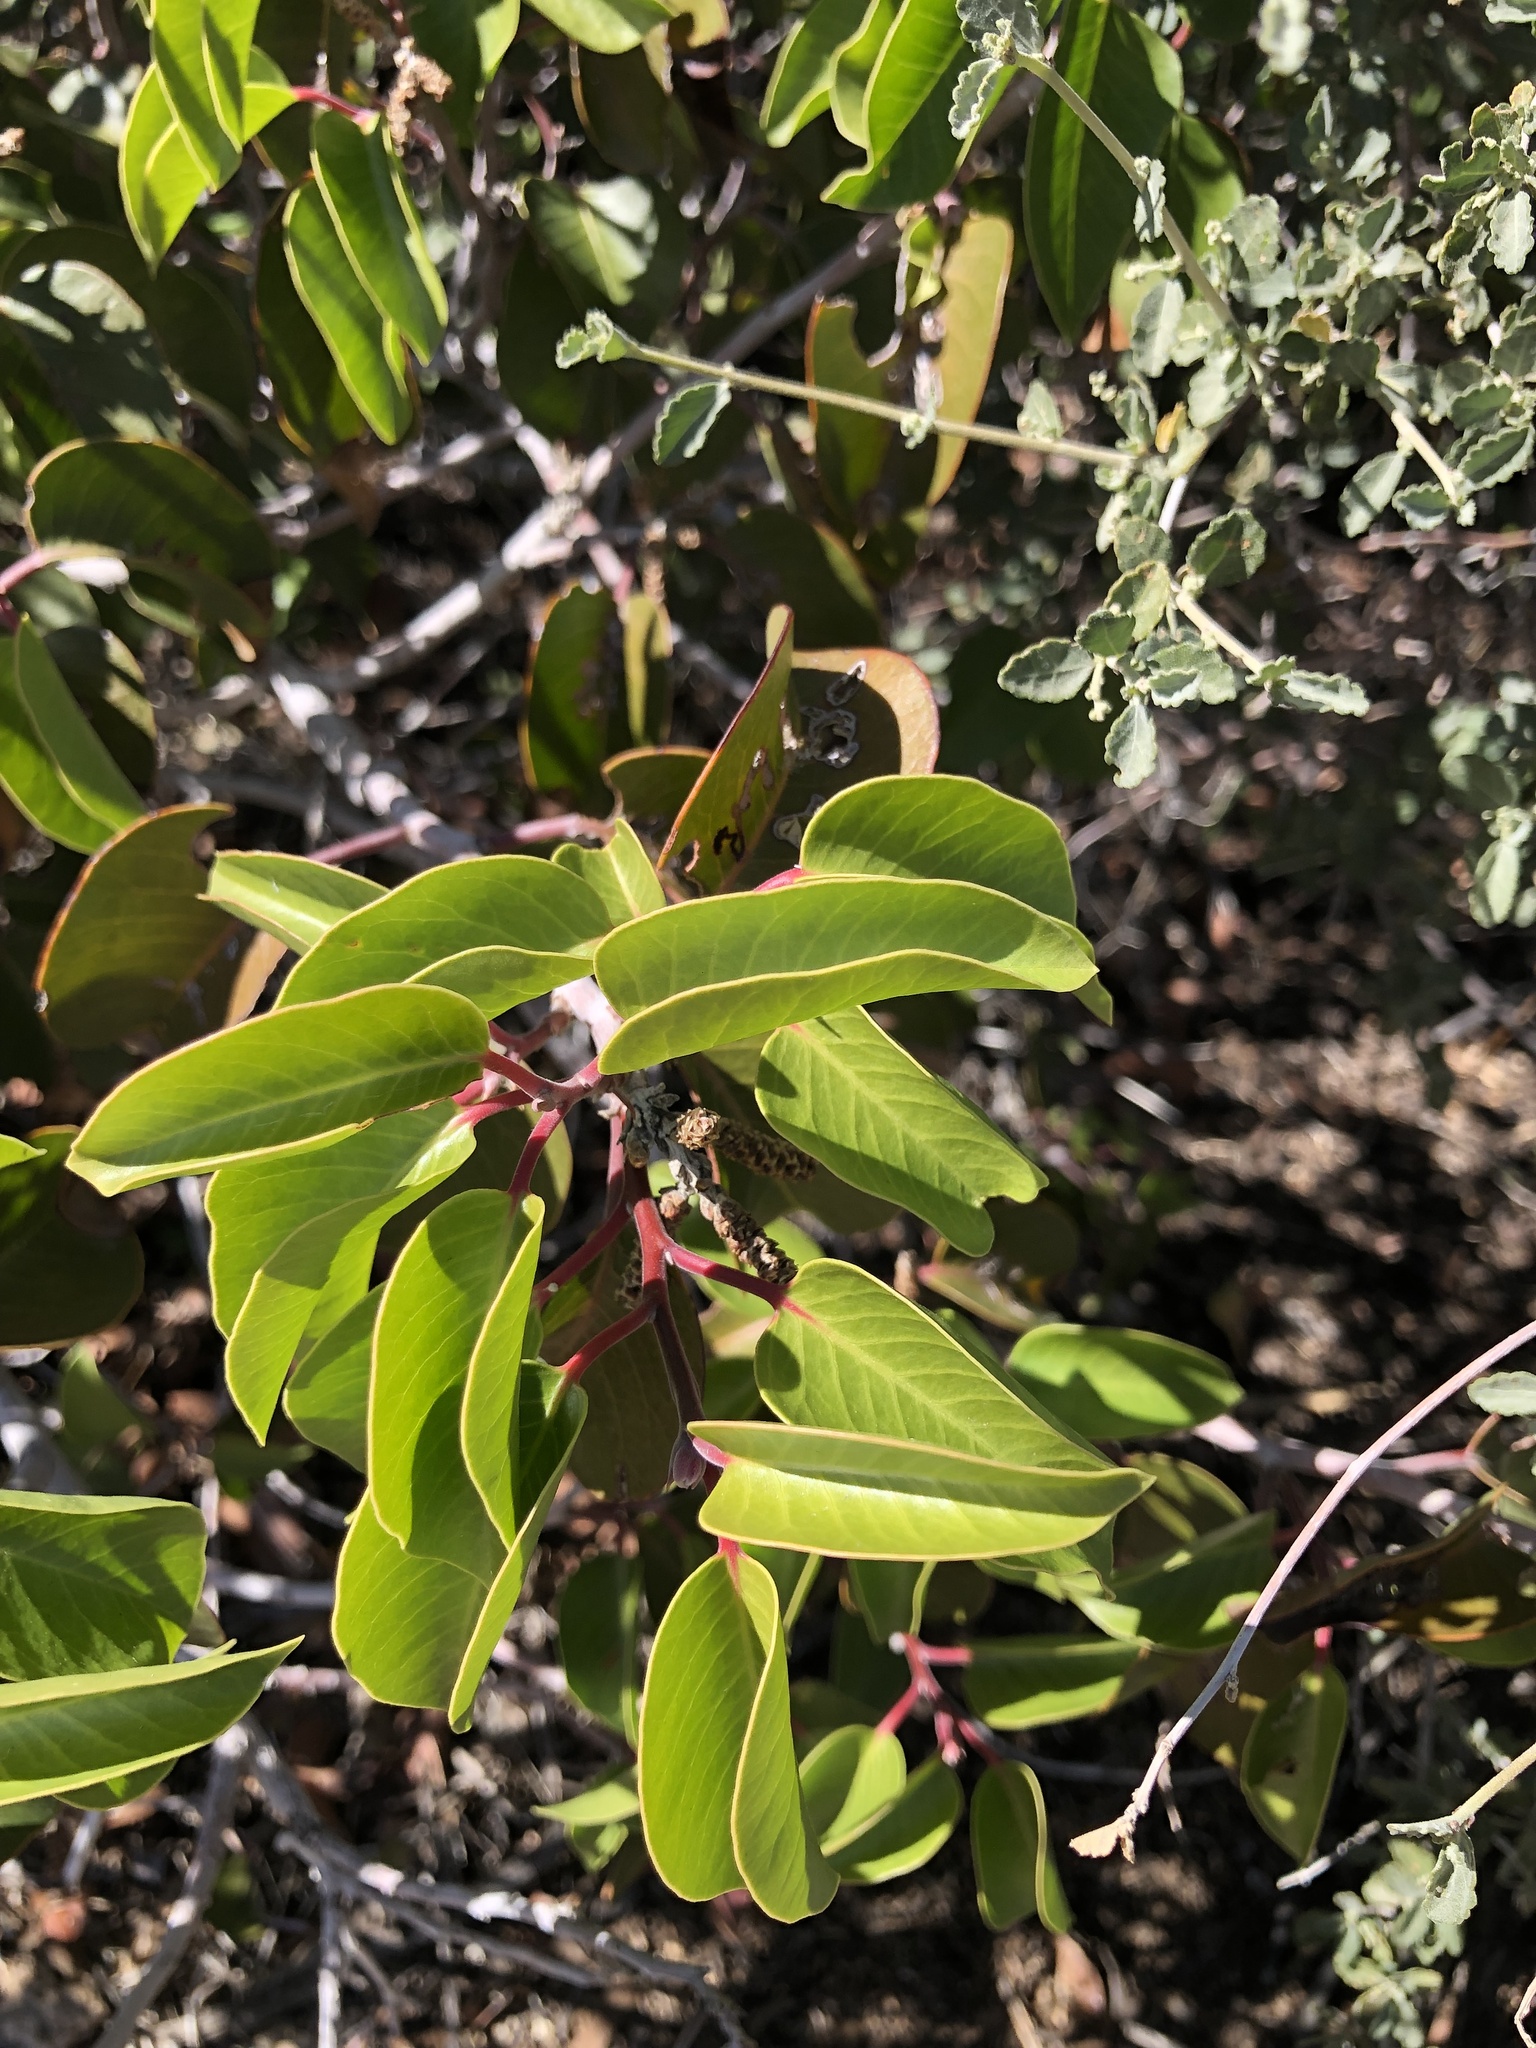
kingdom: Plantae
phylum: Tracheophyta
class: Magnoliopsida
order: Sapindales
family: Anacardiaceae
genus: Rhus
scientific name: Rhus ovata
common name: Sugar sumac
